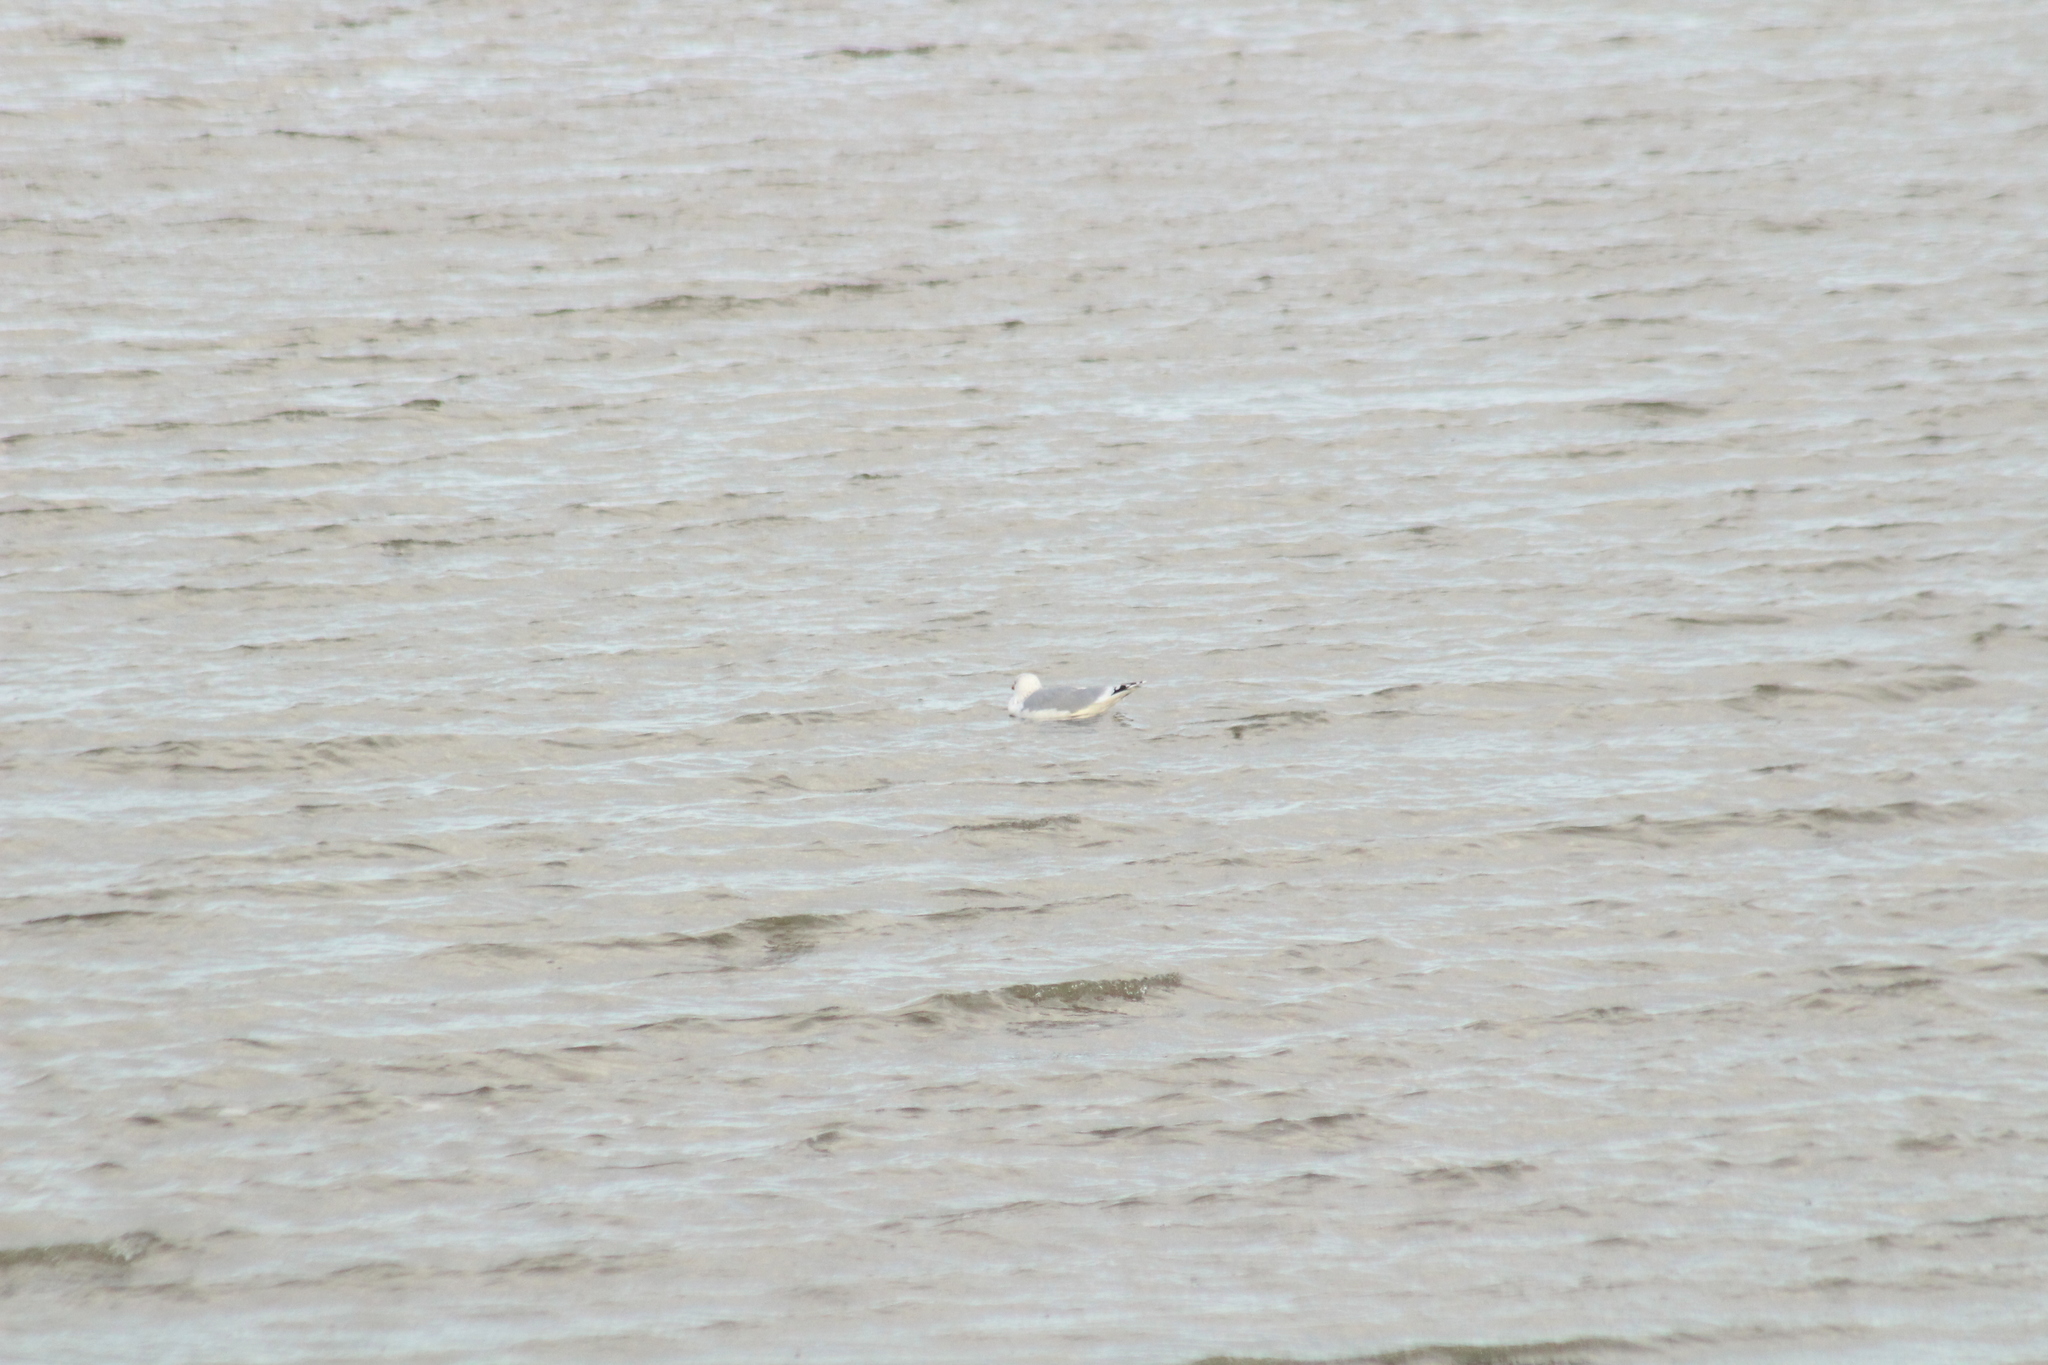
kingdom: Animalia
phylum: Chordata
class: Aves
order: Charadriiformes
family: Laridae
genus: Larus
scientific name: Larus argentatus
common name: Herring gull
